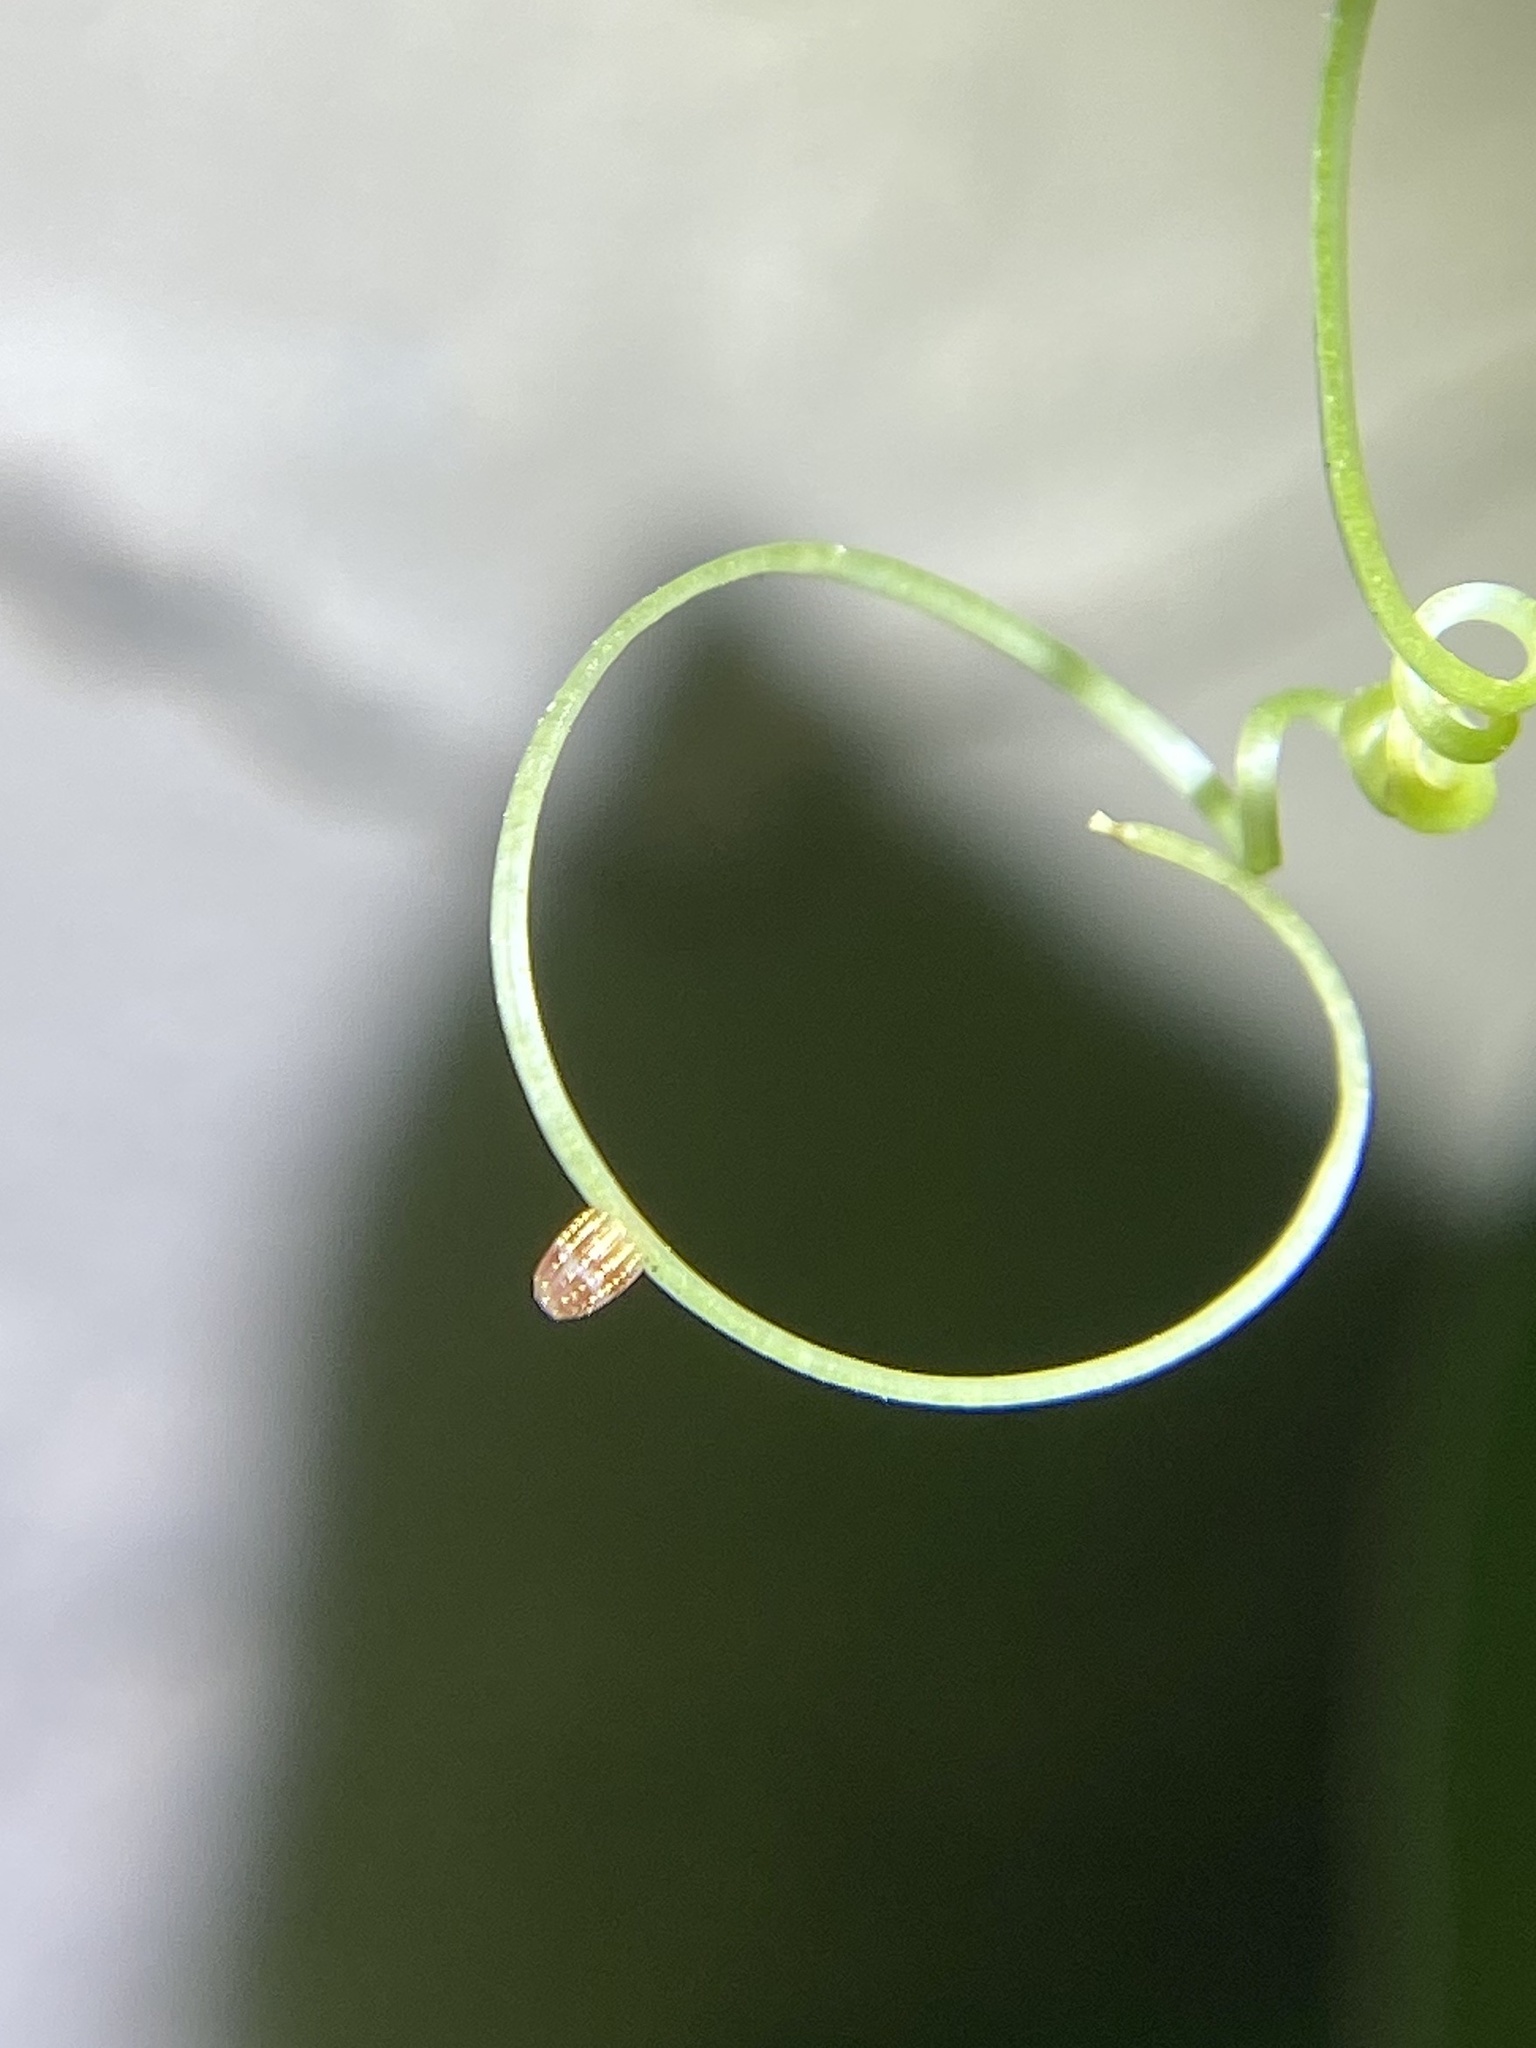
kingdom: Animalia
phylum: Arthropoda
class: Insecta
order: Lepidoptera
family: Nymphalidae
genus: Dione
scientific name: Dione vanillae
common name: Gulf fritillary
